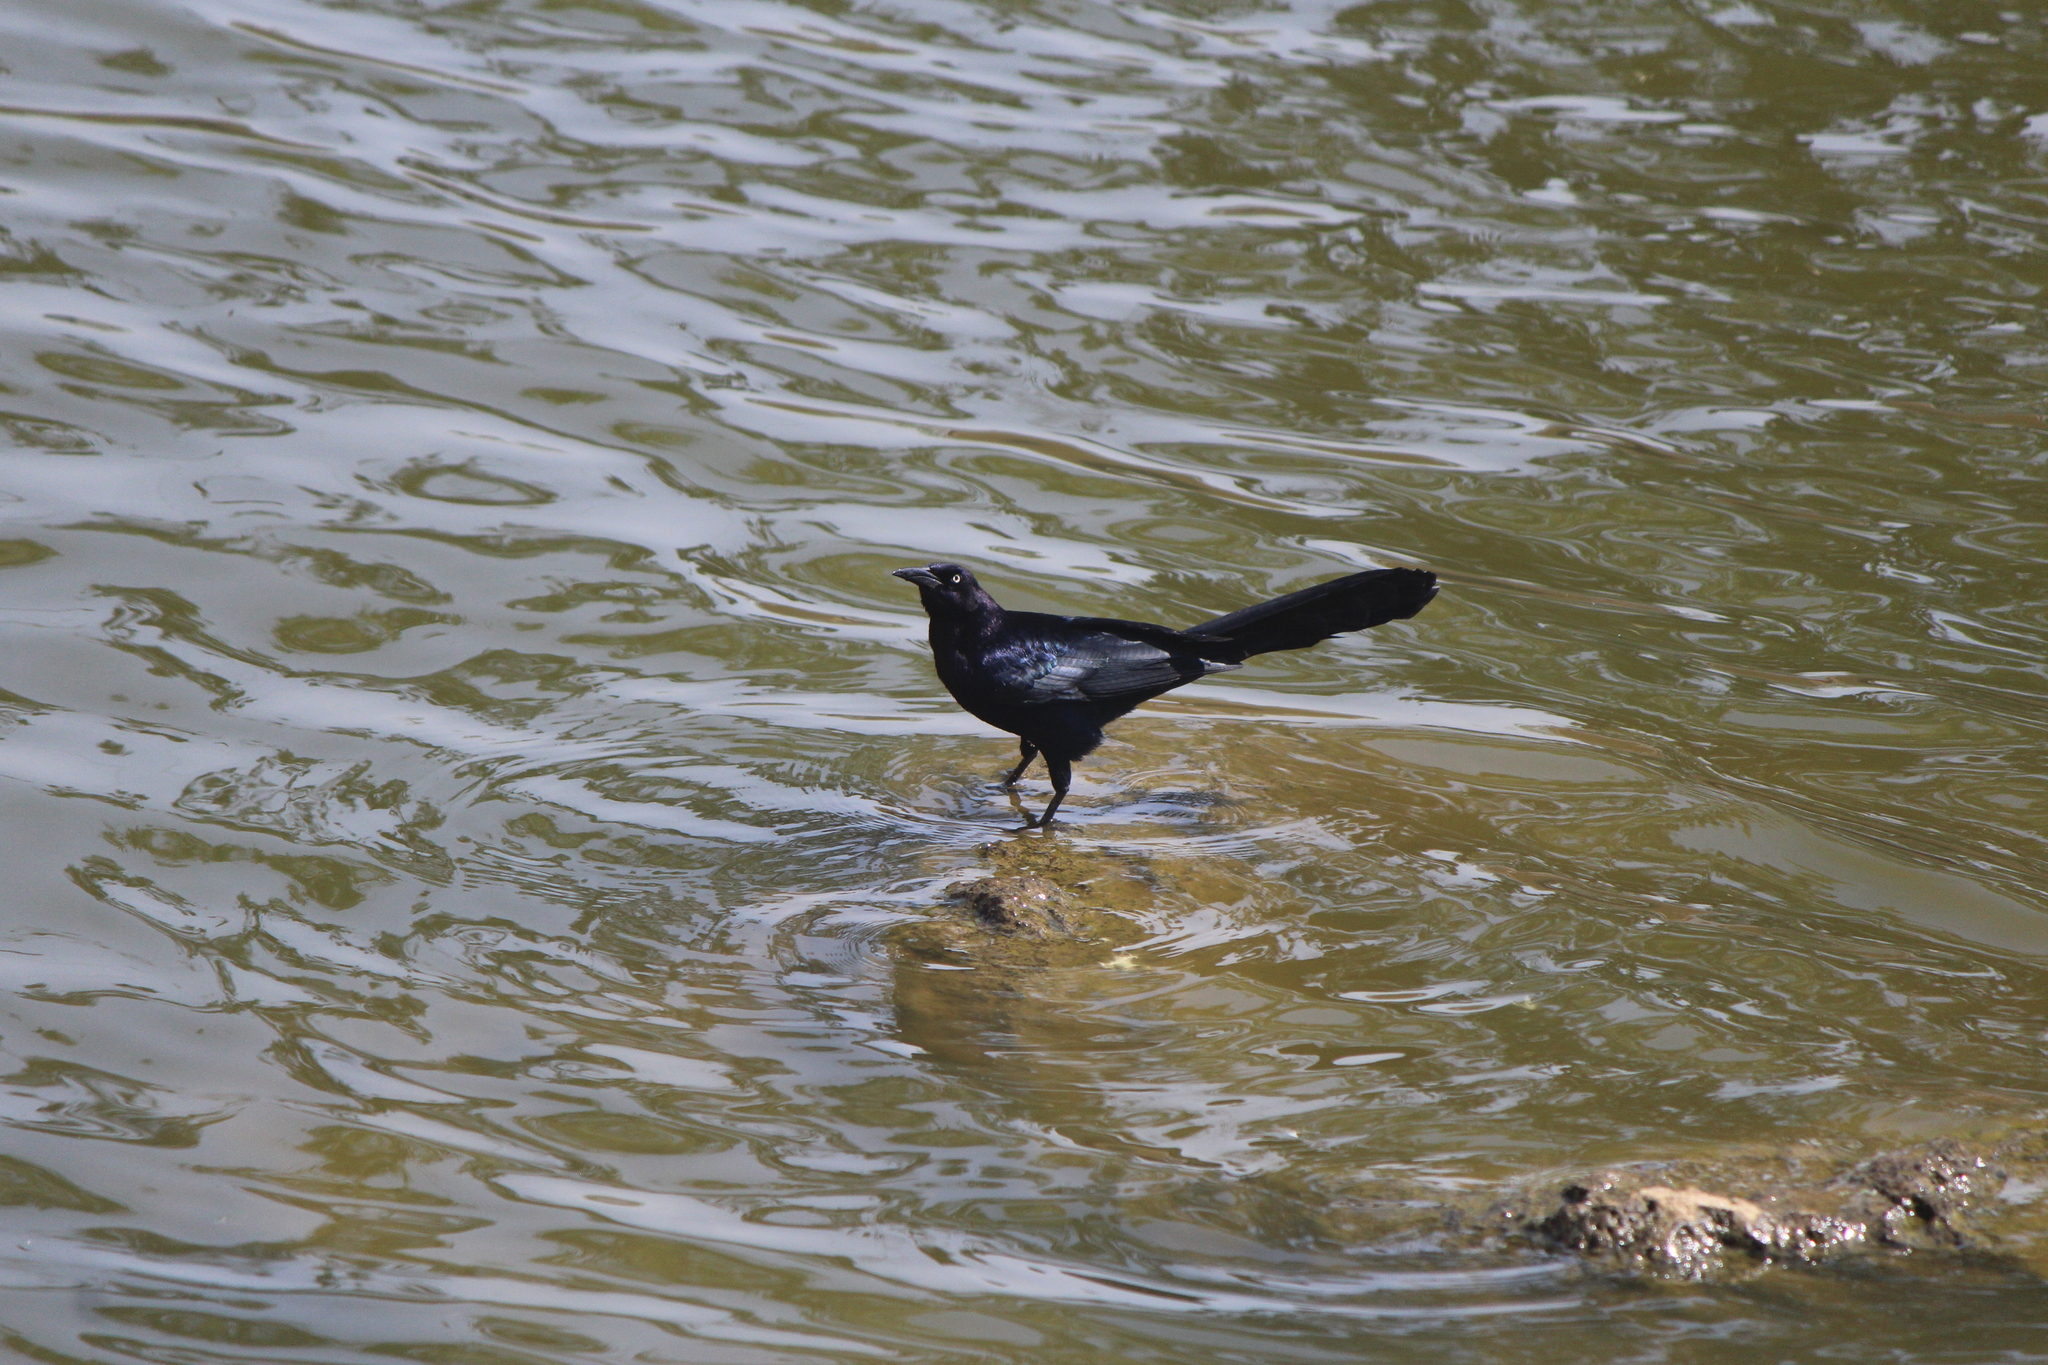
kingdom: Animalia
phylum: Chordata
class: Aves
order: Passeriformes
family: Icteridae
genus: Quiscalus
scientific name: Quiscalus mexicanus
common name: Great-tailed grackle
